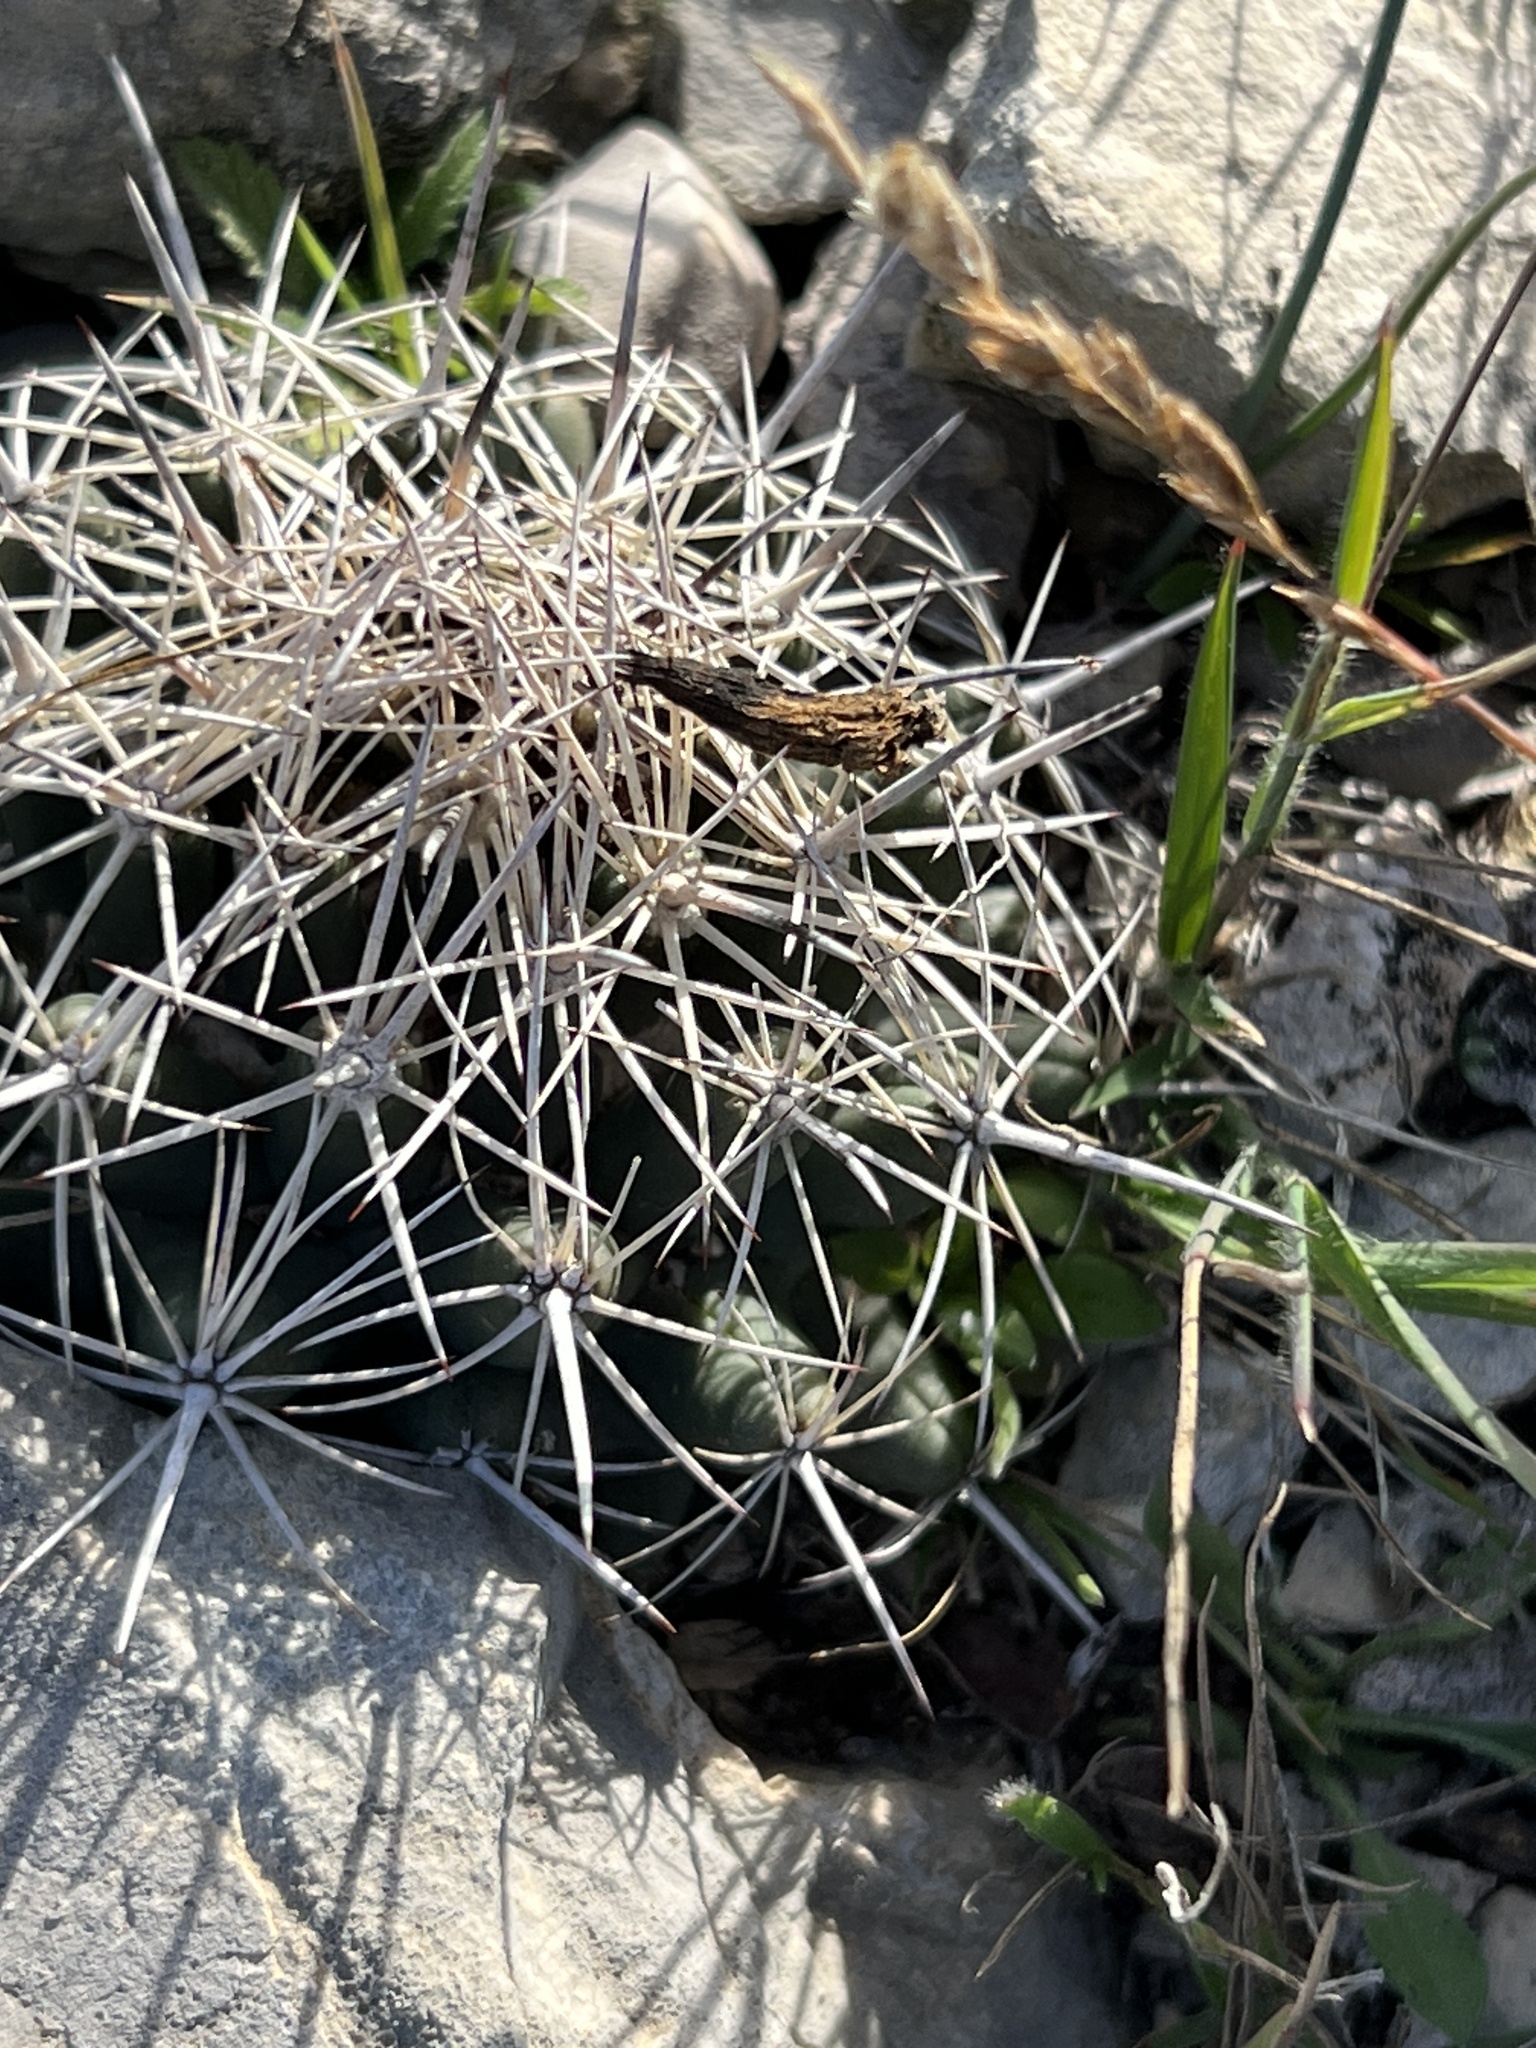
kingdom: Plantae
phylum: Tracheophyta
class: Magnoliopsida
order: Caryophyllales
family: Cactaceae
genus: Coryphantha
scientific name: Coryphantha echinus
